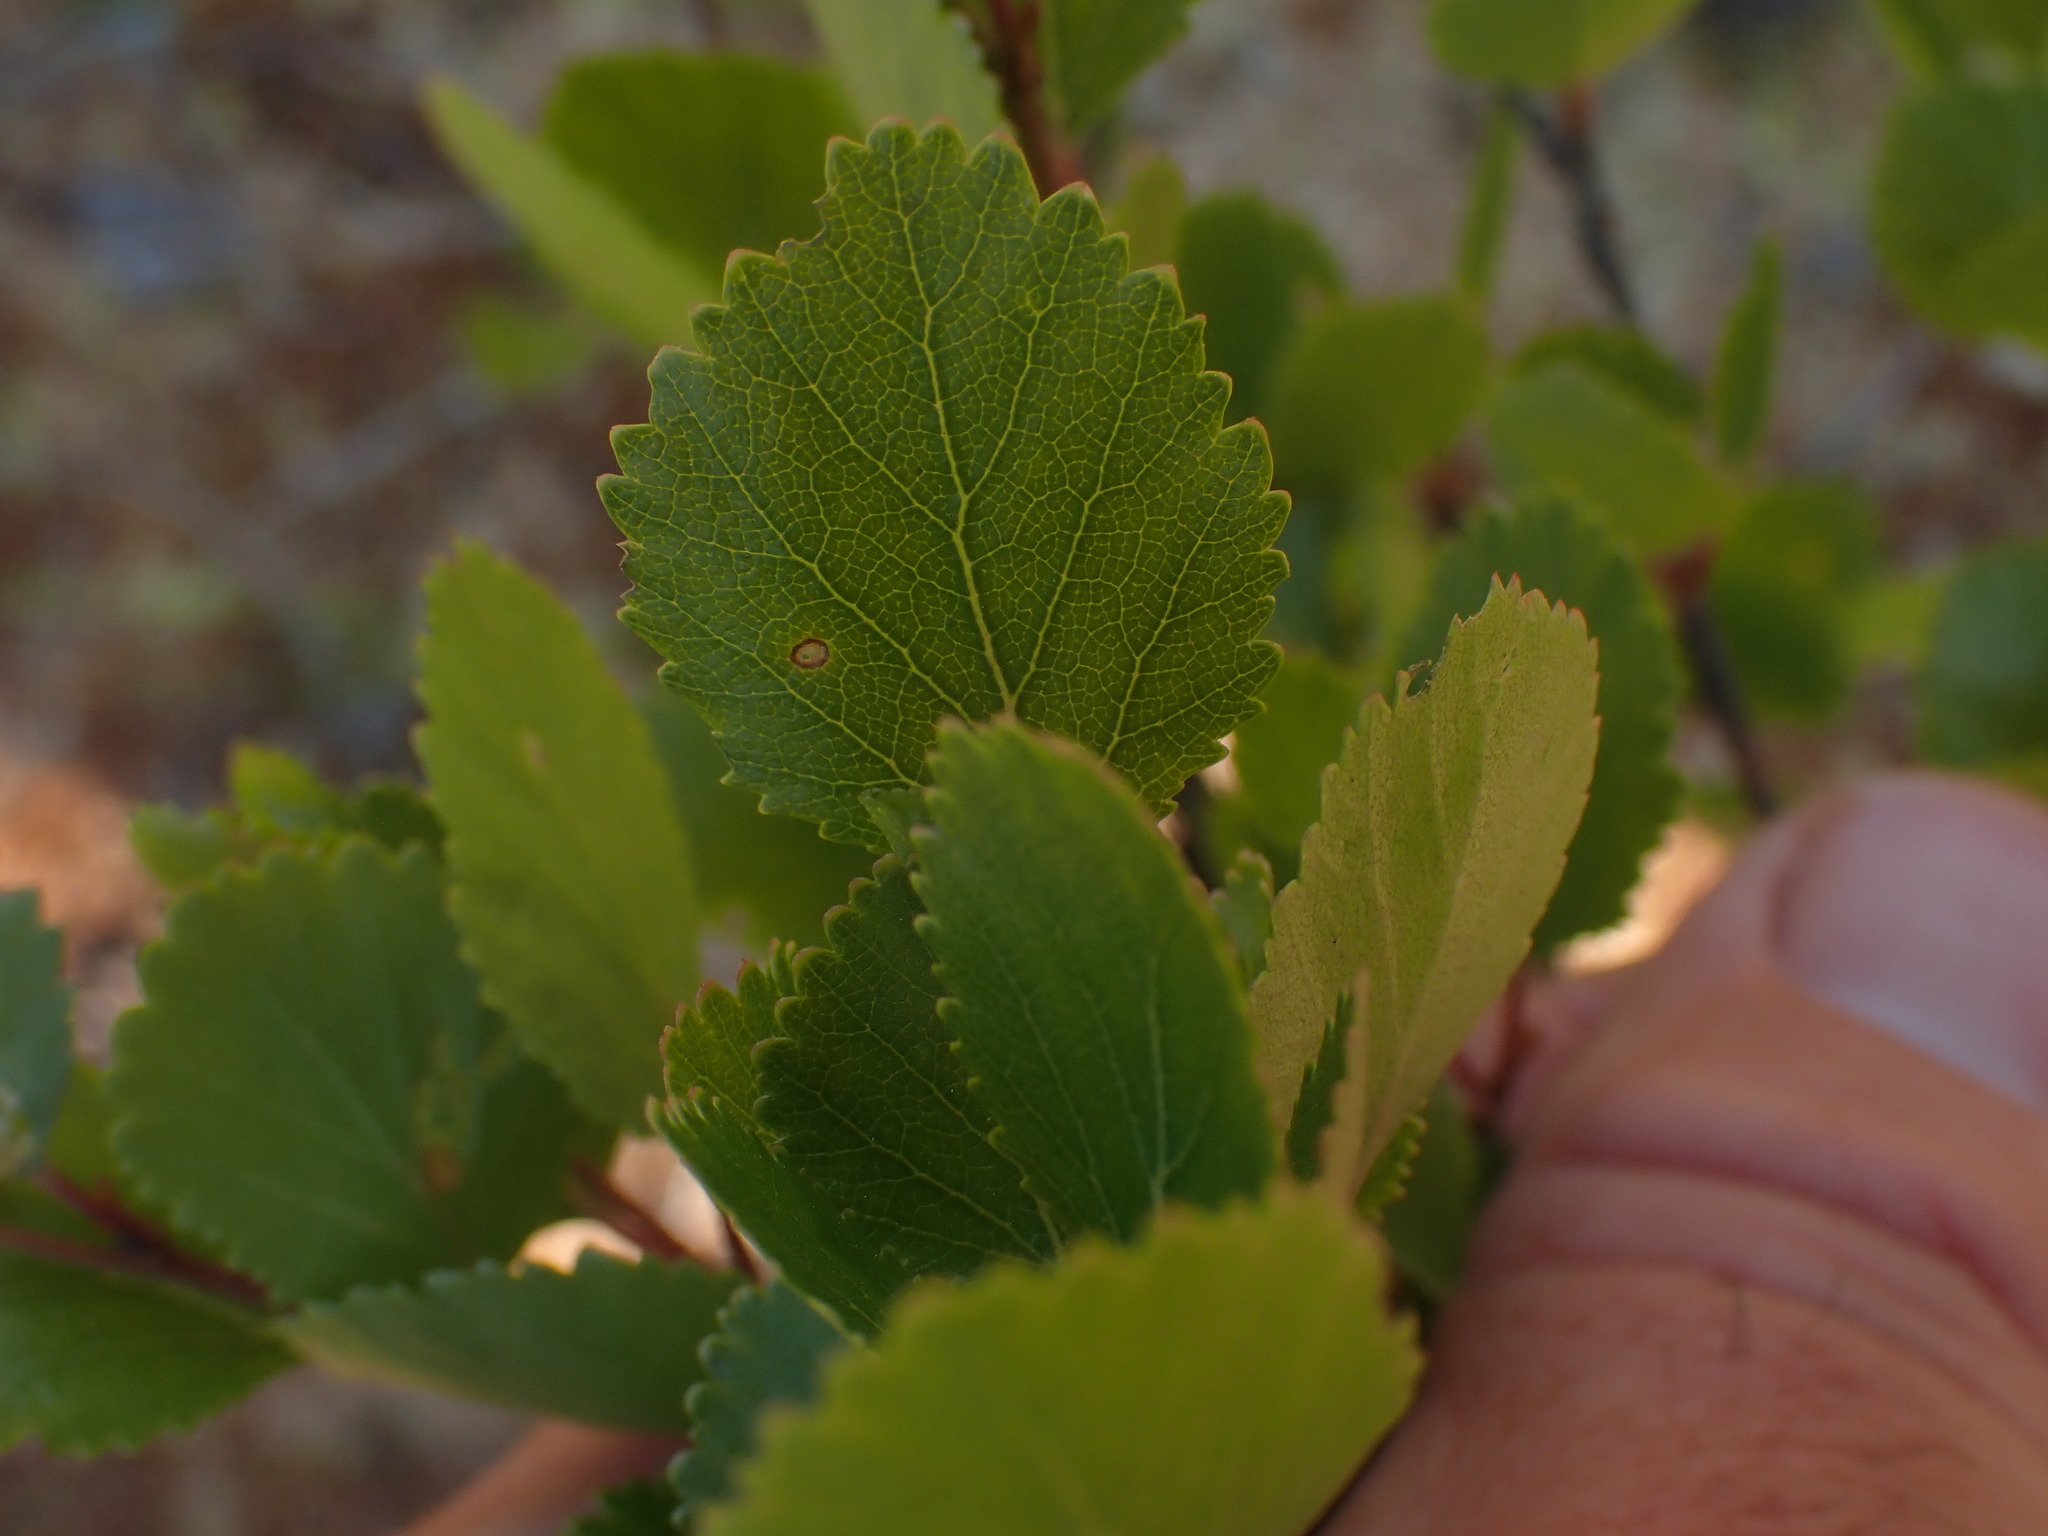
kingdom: Plantae
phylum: Tracheophyta
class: Magnoliopsida
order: Fagales
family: Betulaceae
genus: Betula
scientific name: Betula pumila
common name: Bog birch
